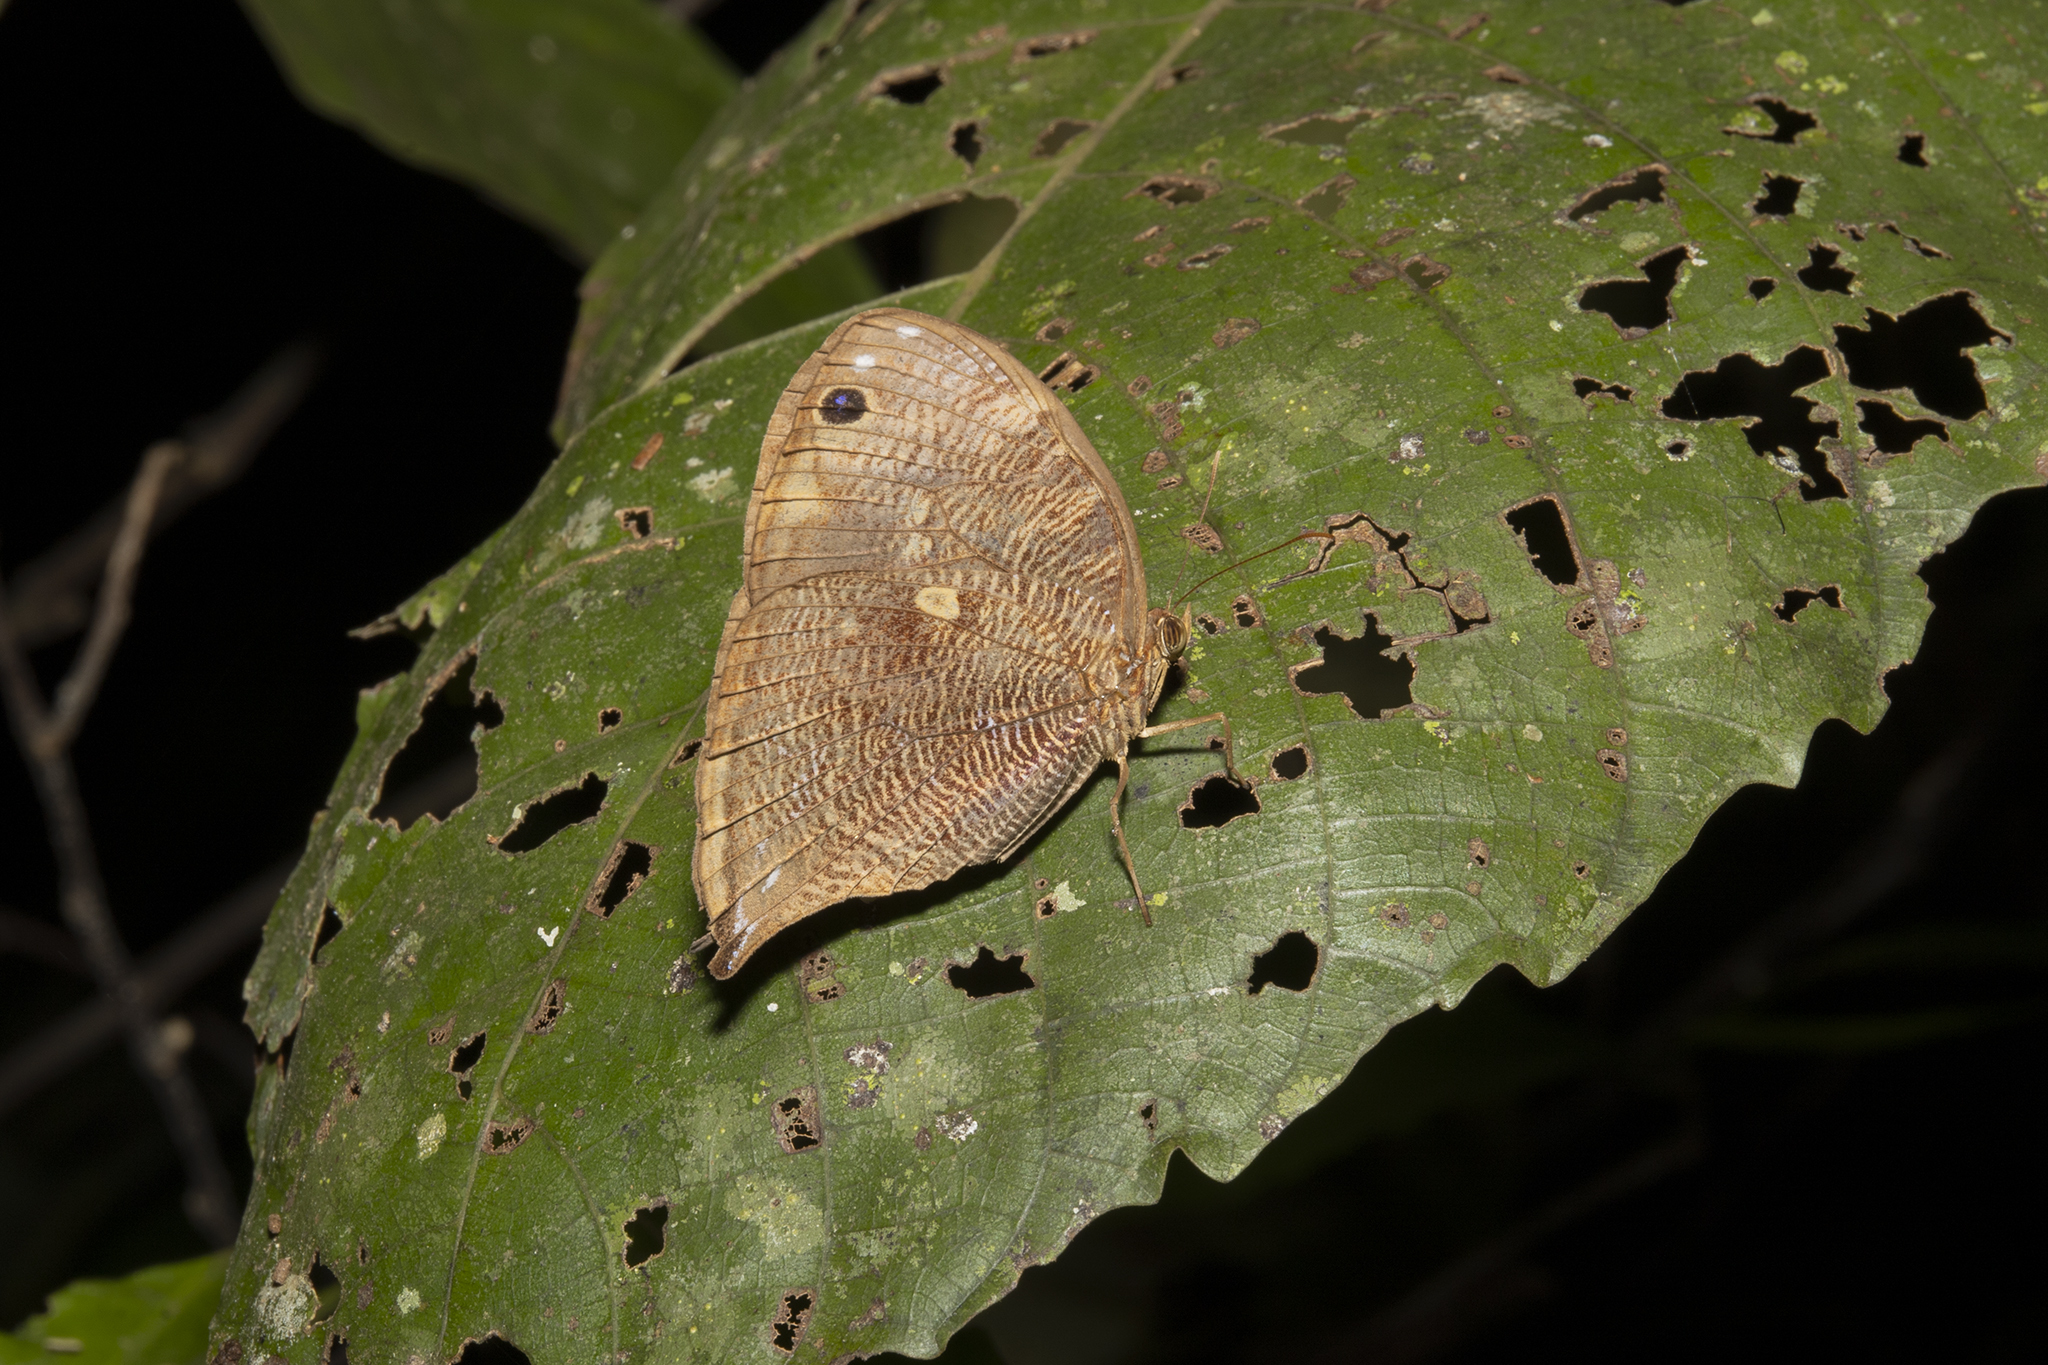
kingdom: Animalia
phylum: Arthropoda
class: Insecta
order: Lepidoptera
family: Nymphalidae
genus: Bia
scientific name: Bia actorion
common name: Uncertain owlet
